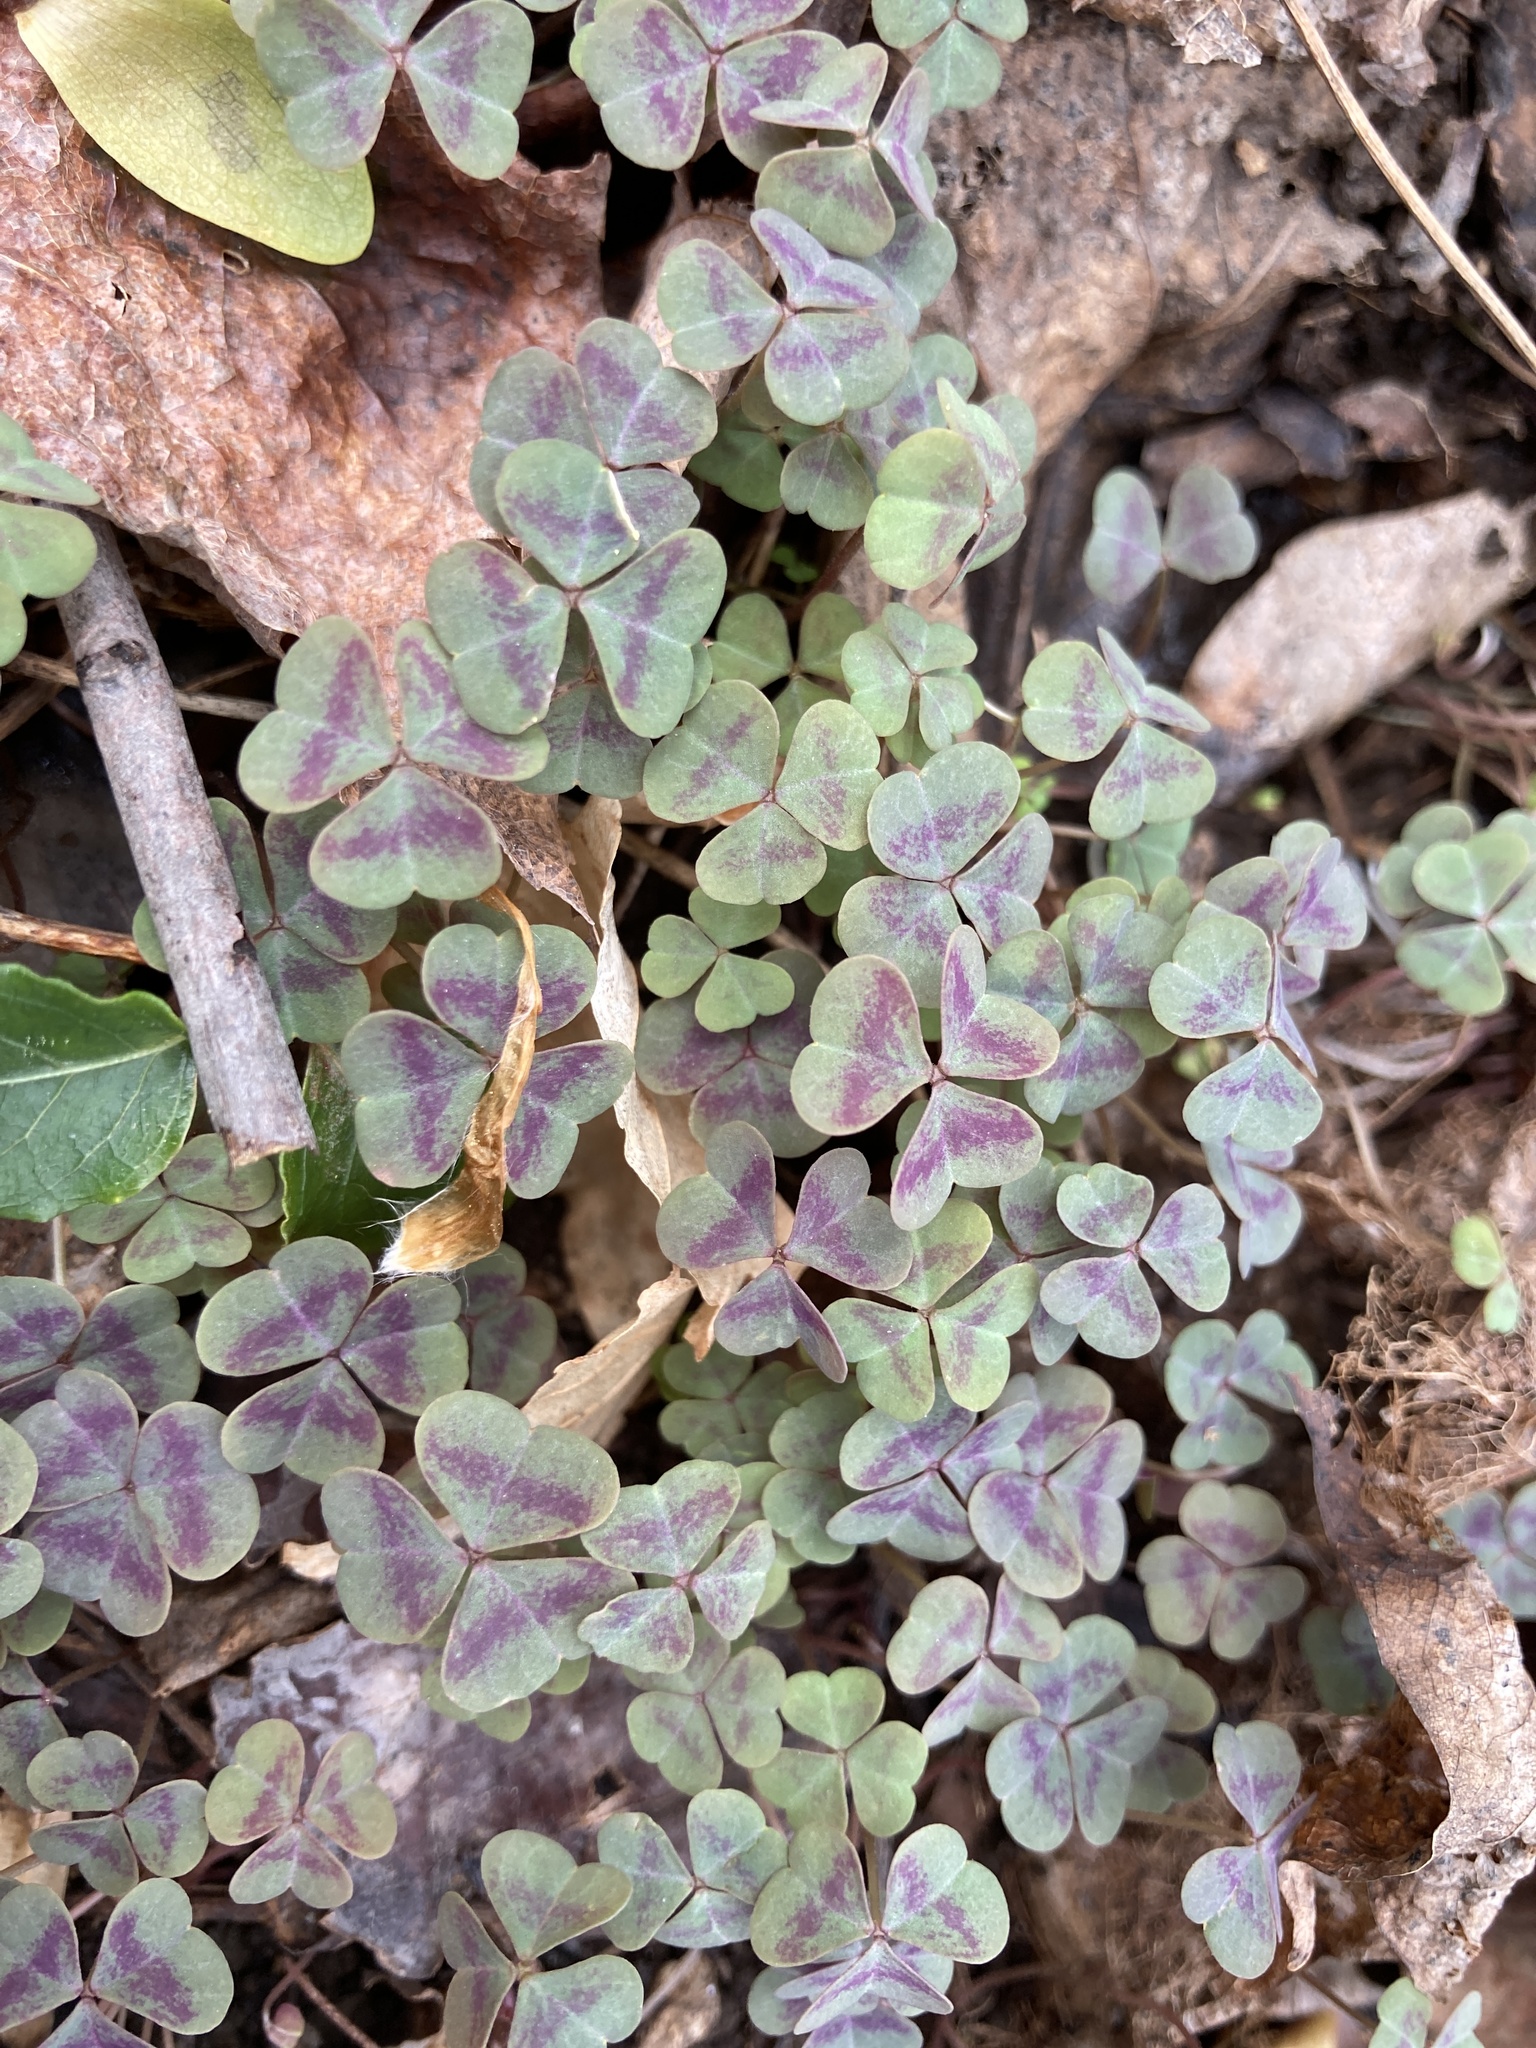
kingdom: Plantae
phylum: Tracheophyta
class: Magnoliopsida
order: Oxalidales
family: Oxalidaceae
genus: Oxalis
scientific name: Oxalis violacea
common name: Violet wood-sorrel
